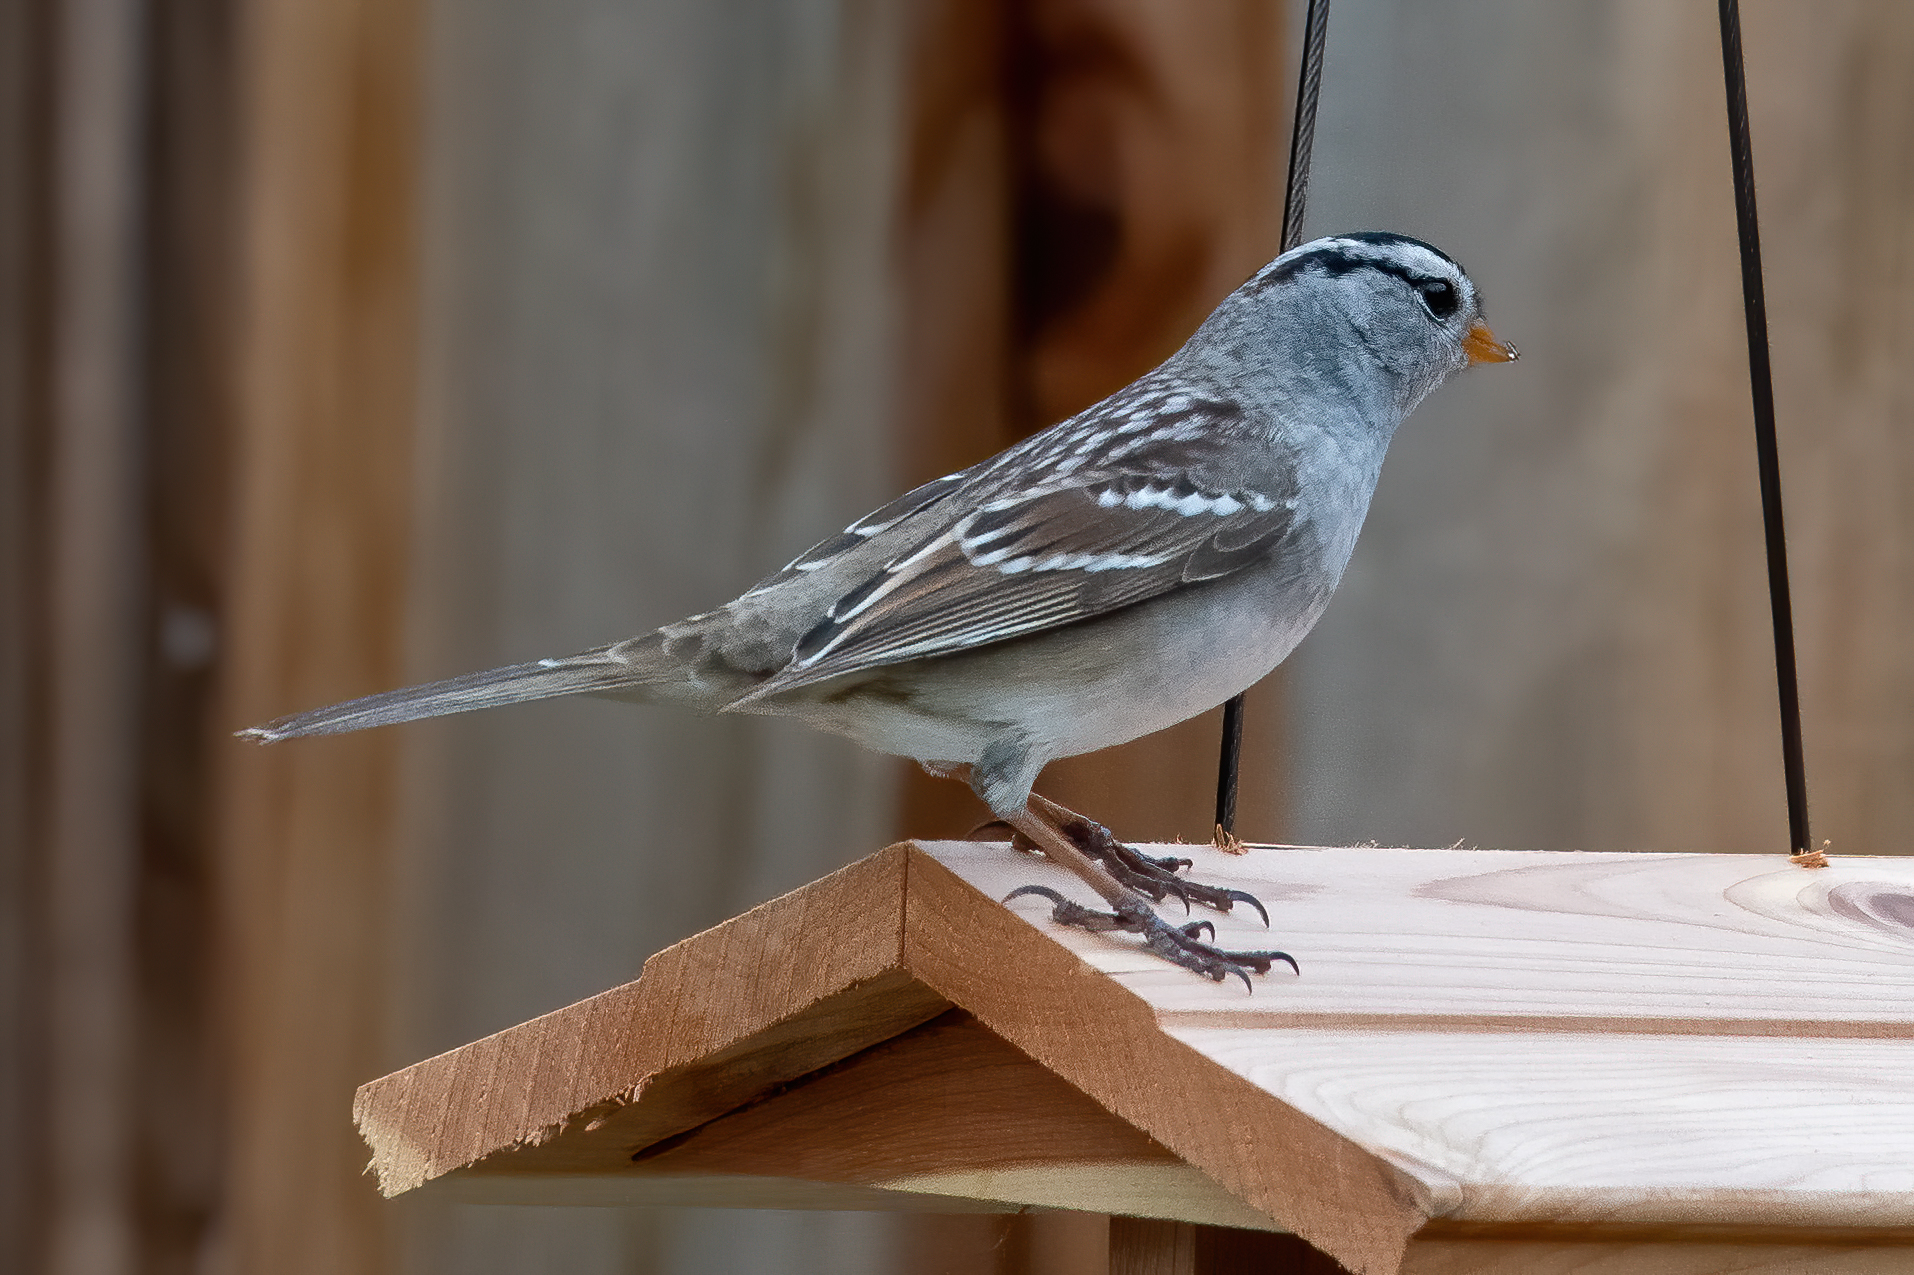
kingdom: Animalia
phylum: Chordata
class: Aves
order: Passeriformes
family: Passerellidae
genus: Zonotrichia
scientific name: Zonotrichia leucophrys
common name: White-crowned sparrow
